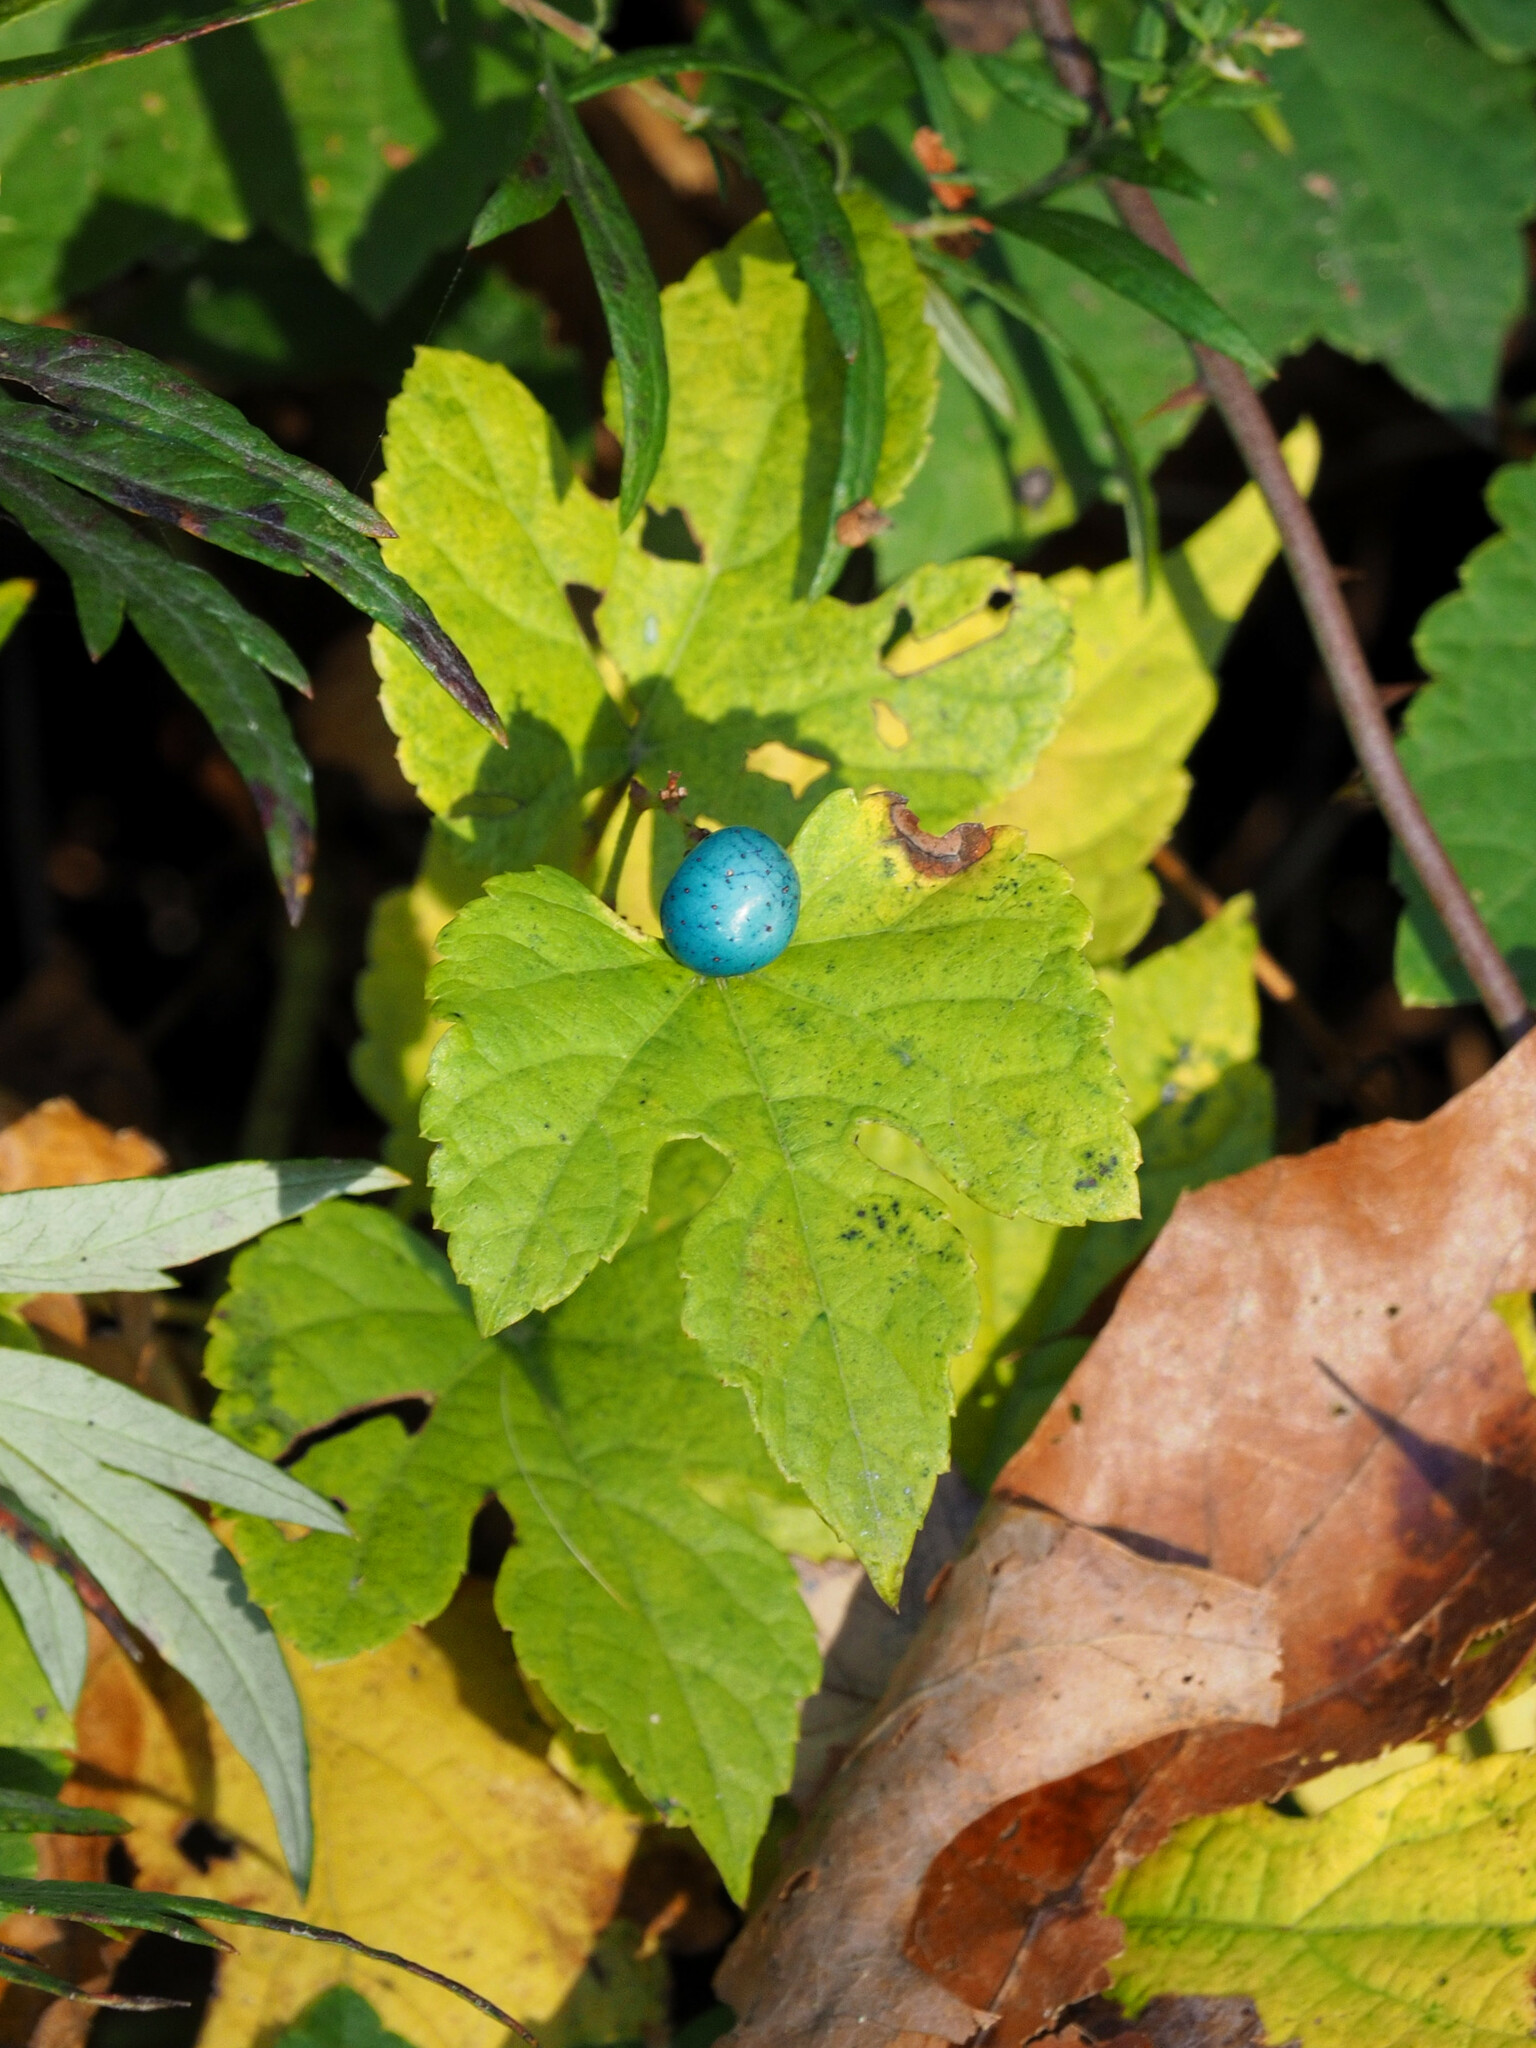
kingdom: Plantae
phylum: Tracheophyta
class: Magnoliopsida
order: Vitales
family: Vitaceae
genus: Ampelopsis
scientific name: Ampelopsis glandulosa
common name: Amur peppervine
